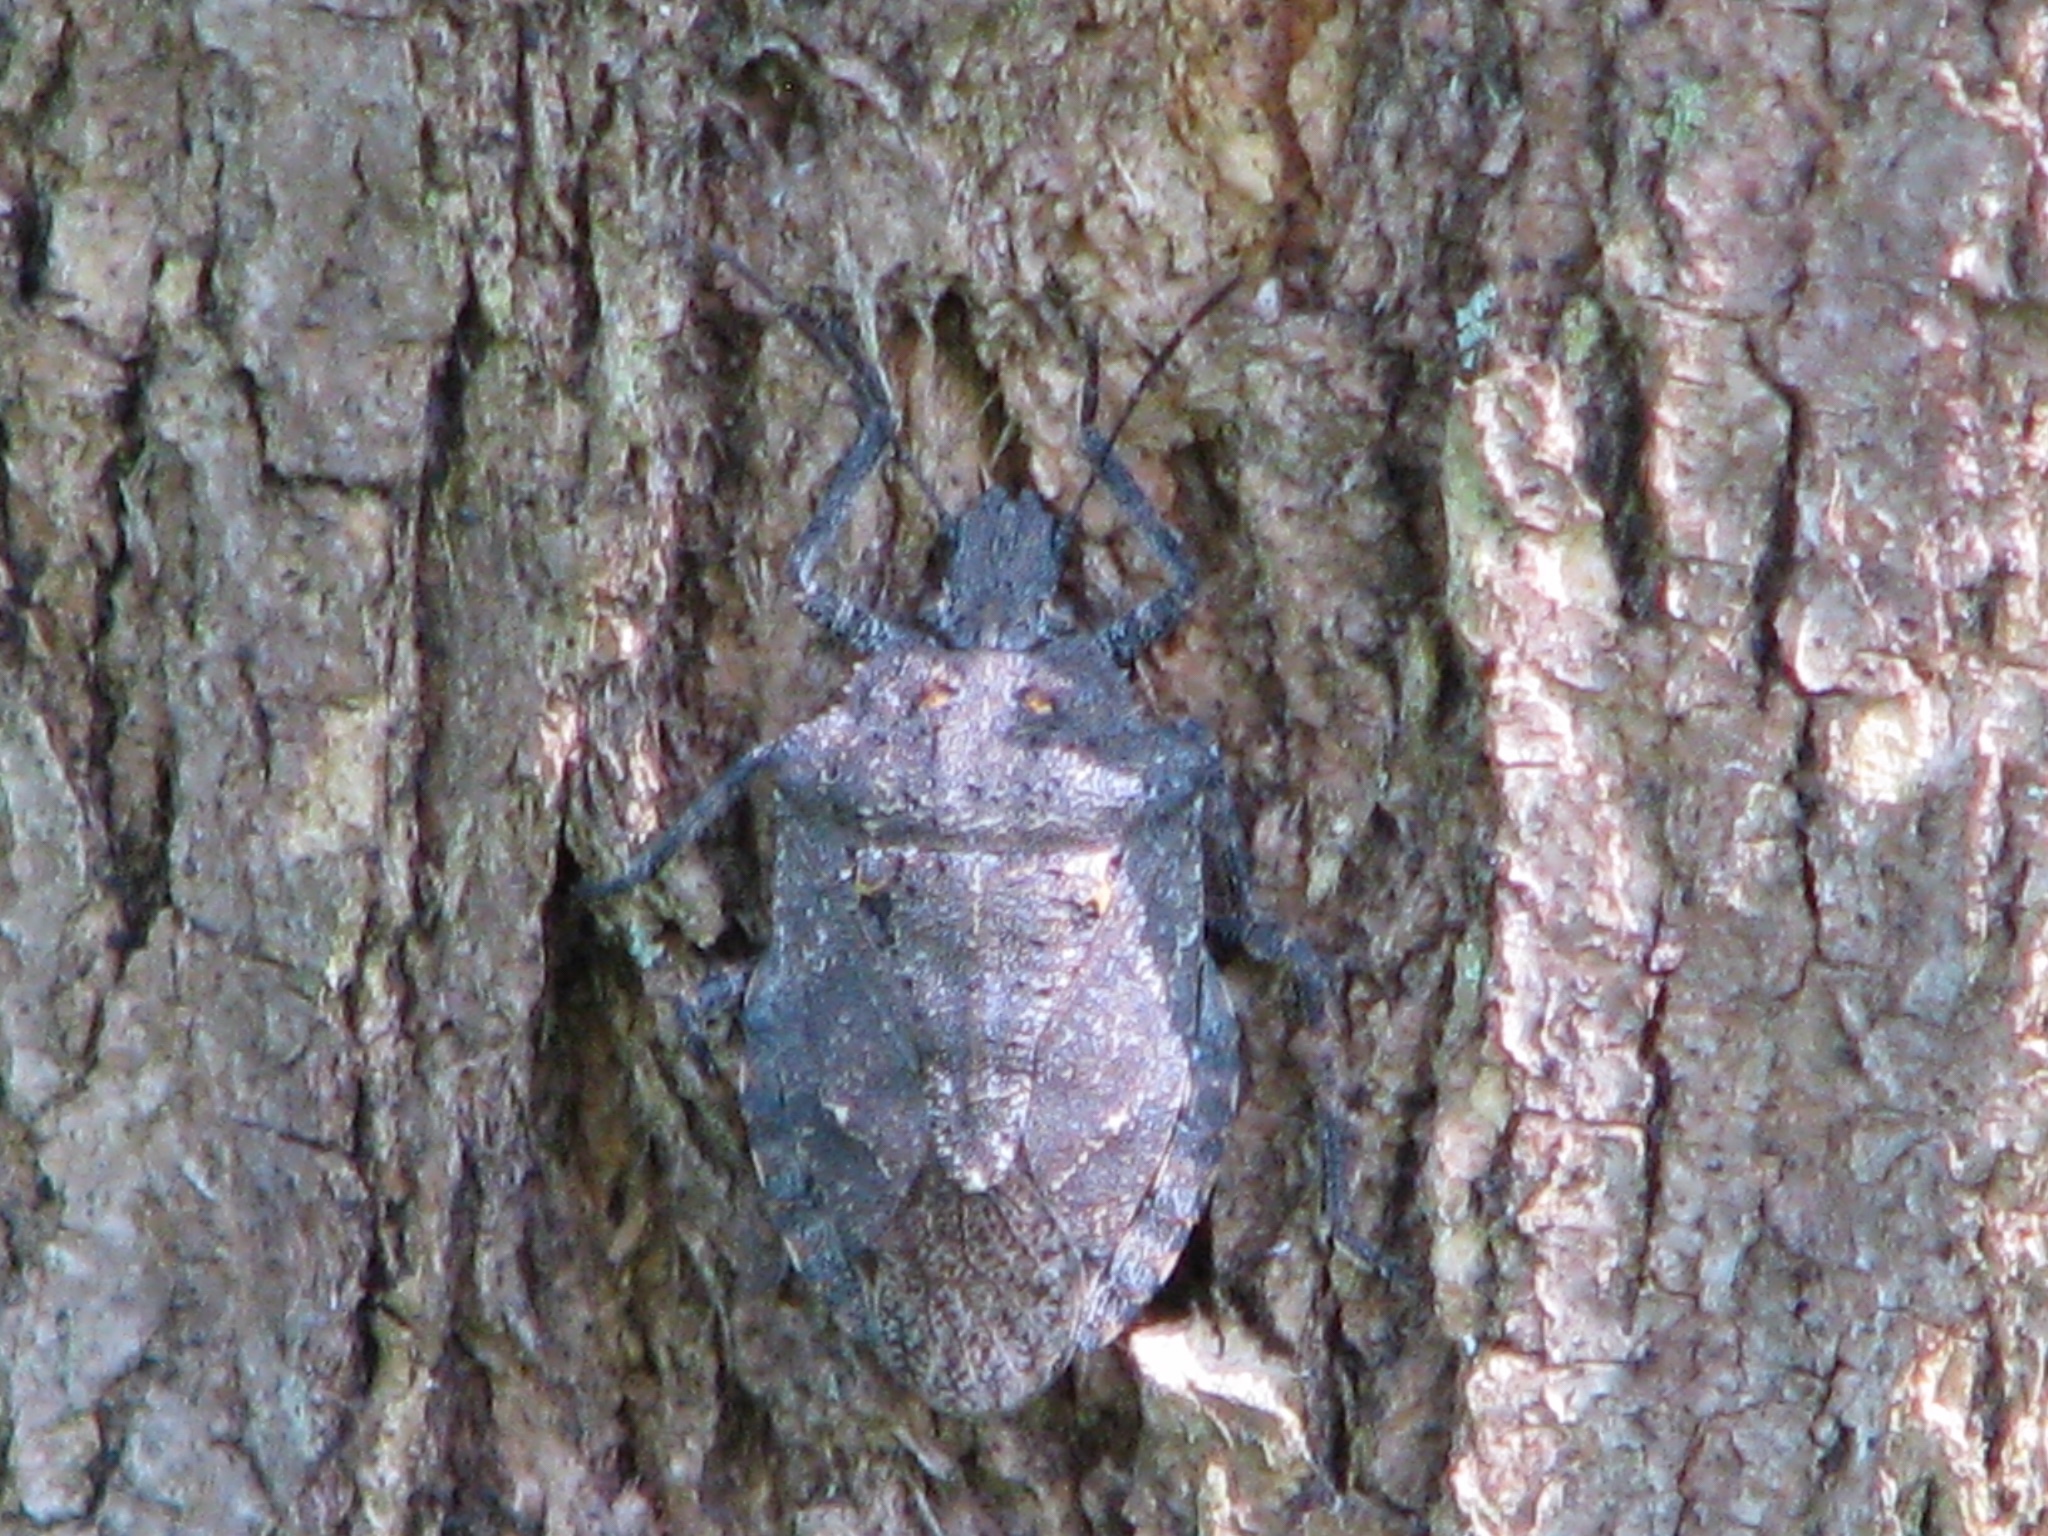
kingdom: Animalia
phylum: Arthropoda
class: Insecta
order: Hemiptera
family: Pentatomidae
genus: Brochymena
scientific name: Brochymena quadripustulata
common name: Four-humped stink bug
